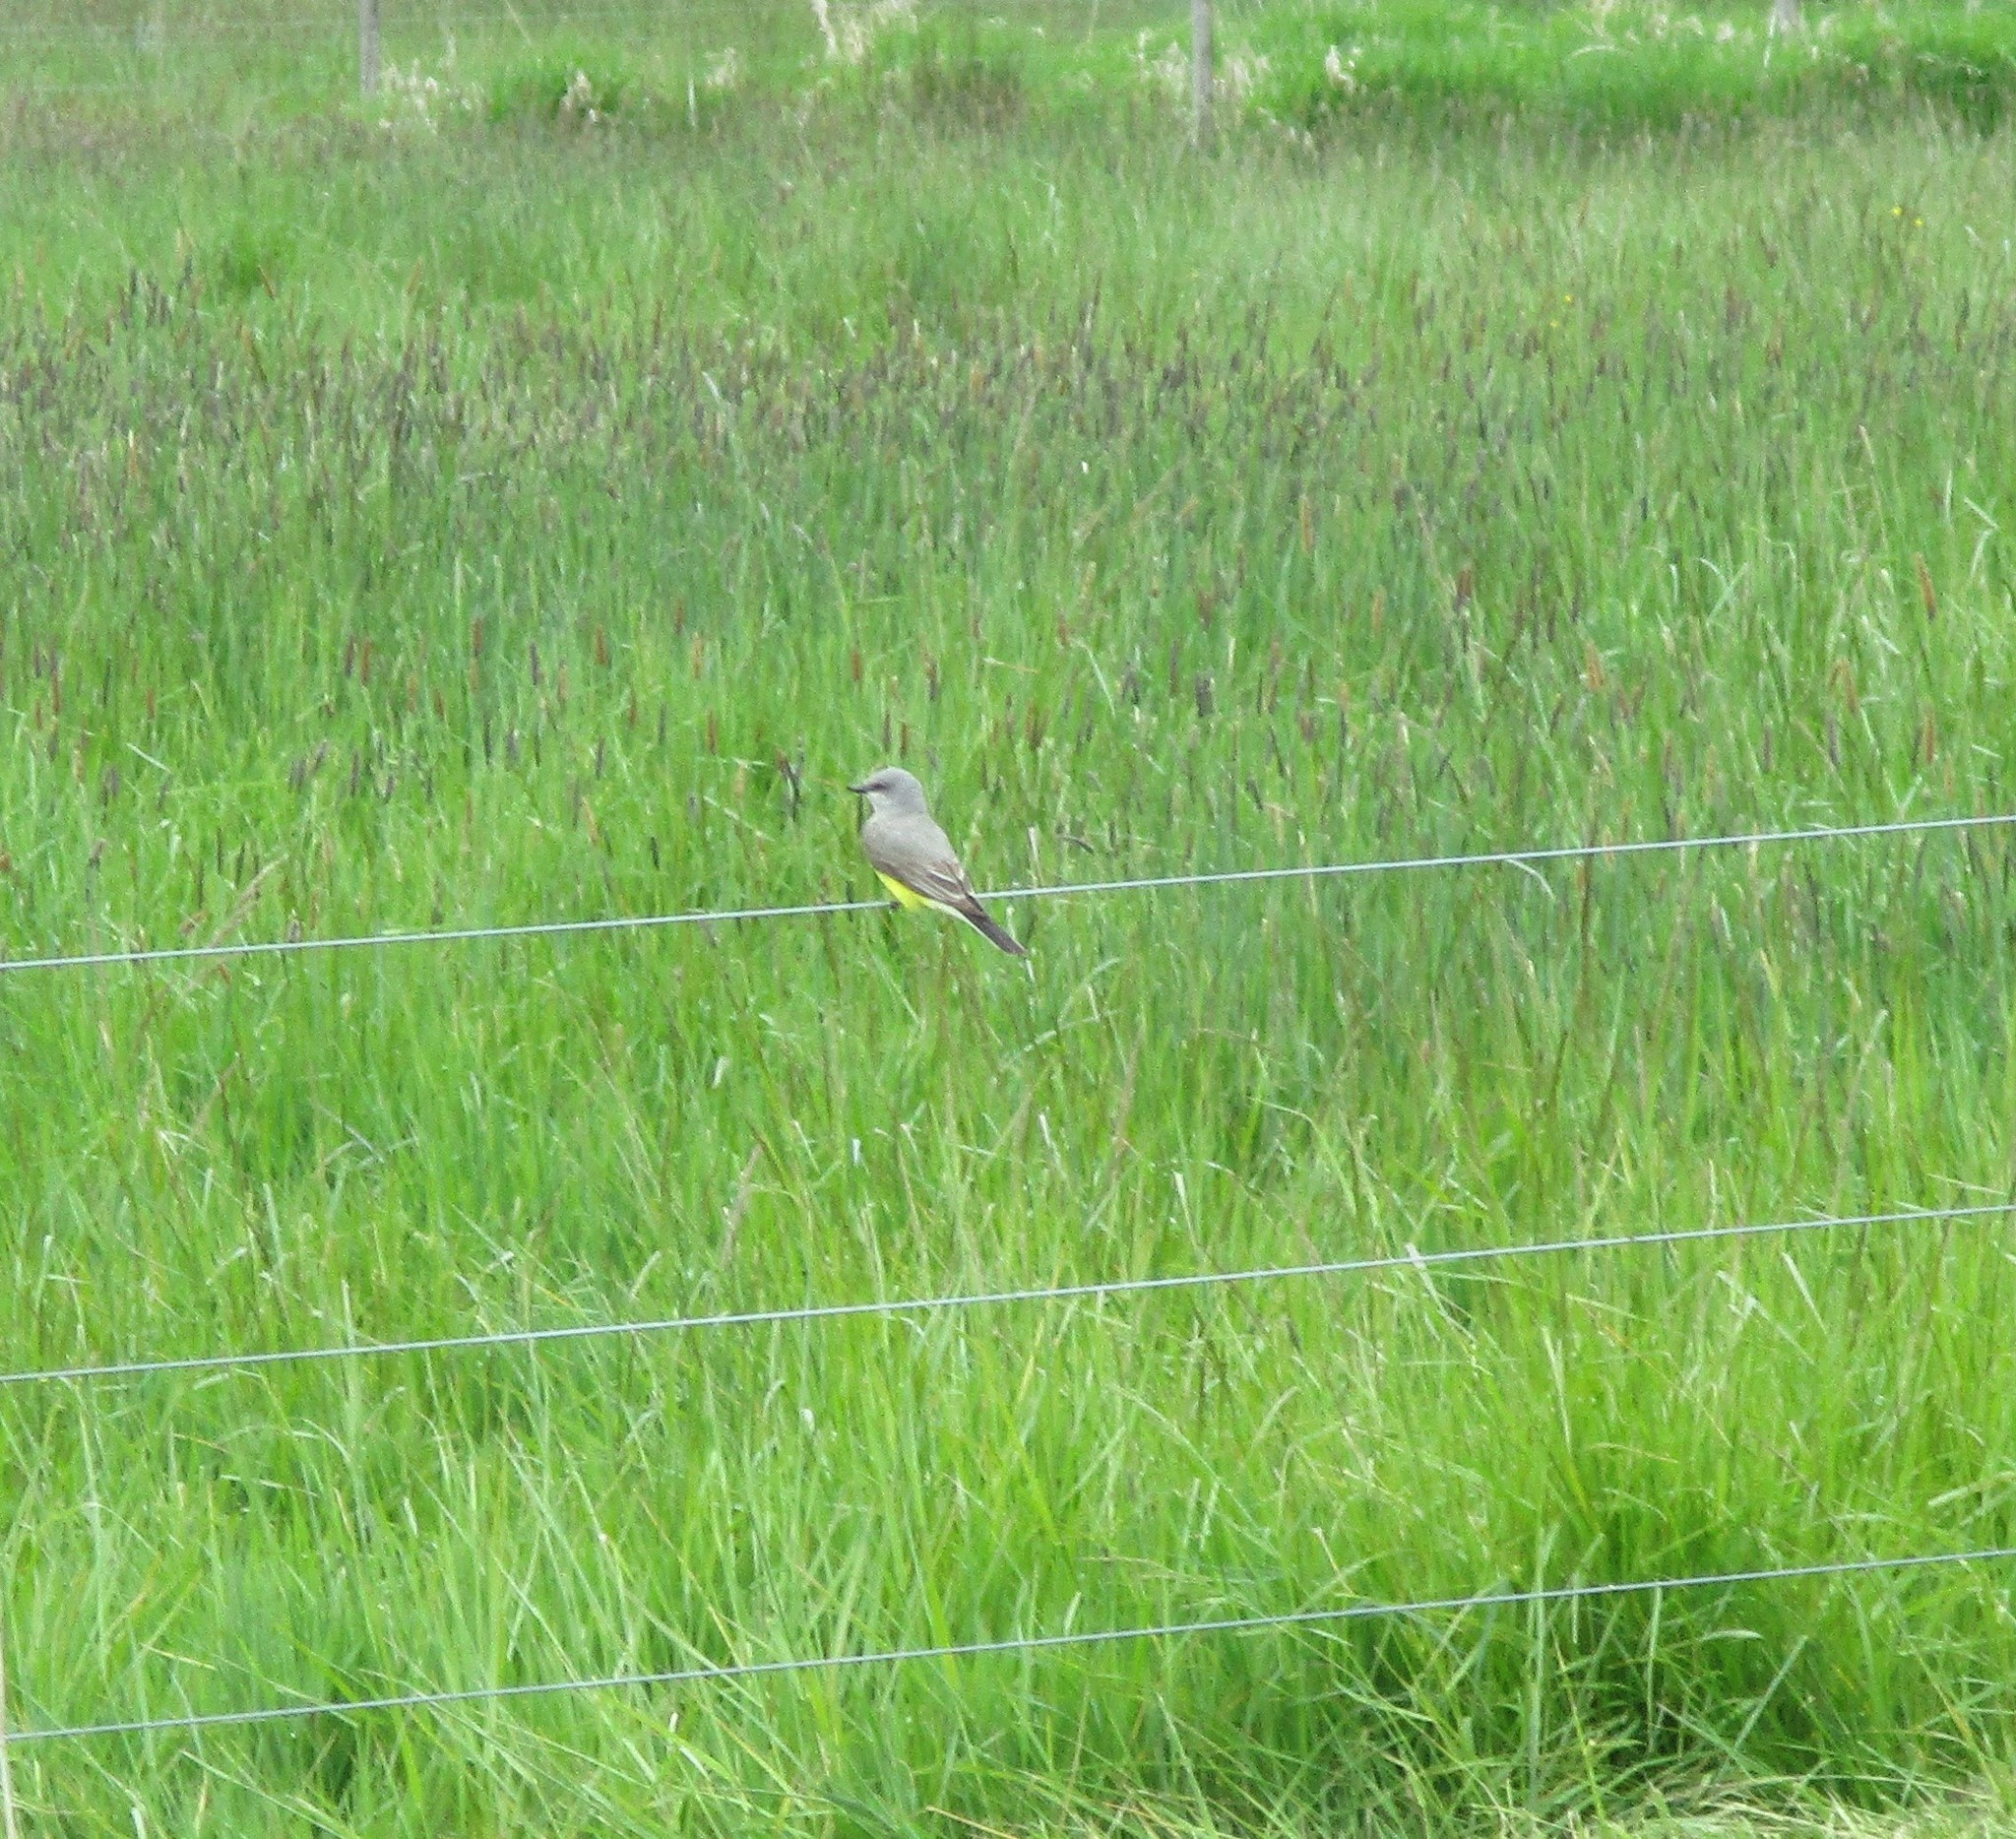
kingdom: Animalia
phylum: Chordata
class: Aves
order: Passeriformes
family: Tyrannidae
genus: Tyrannus
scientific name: Tyrannus verticalis
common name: Western kingbird
